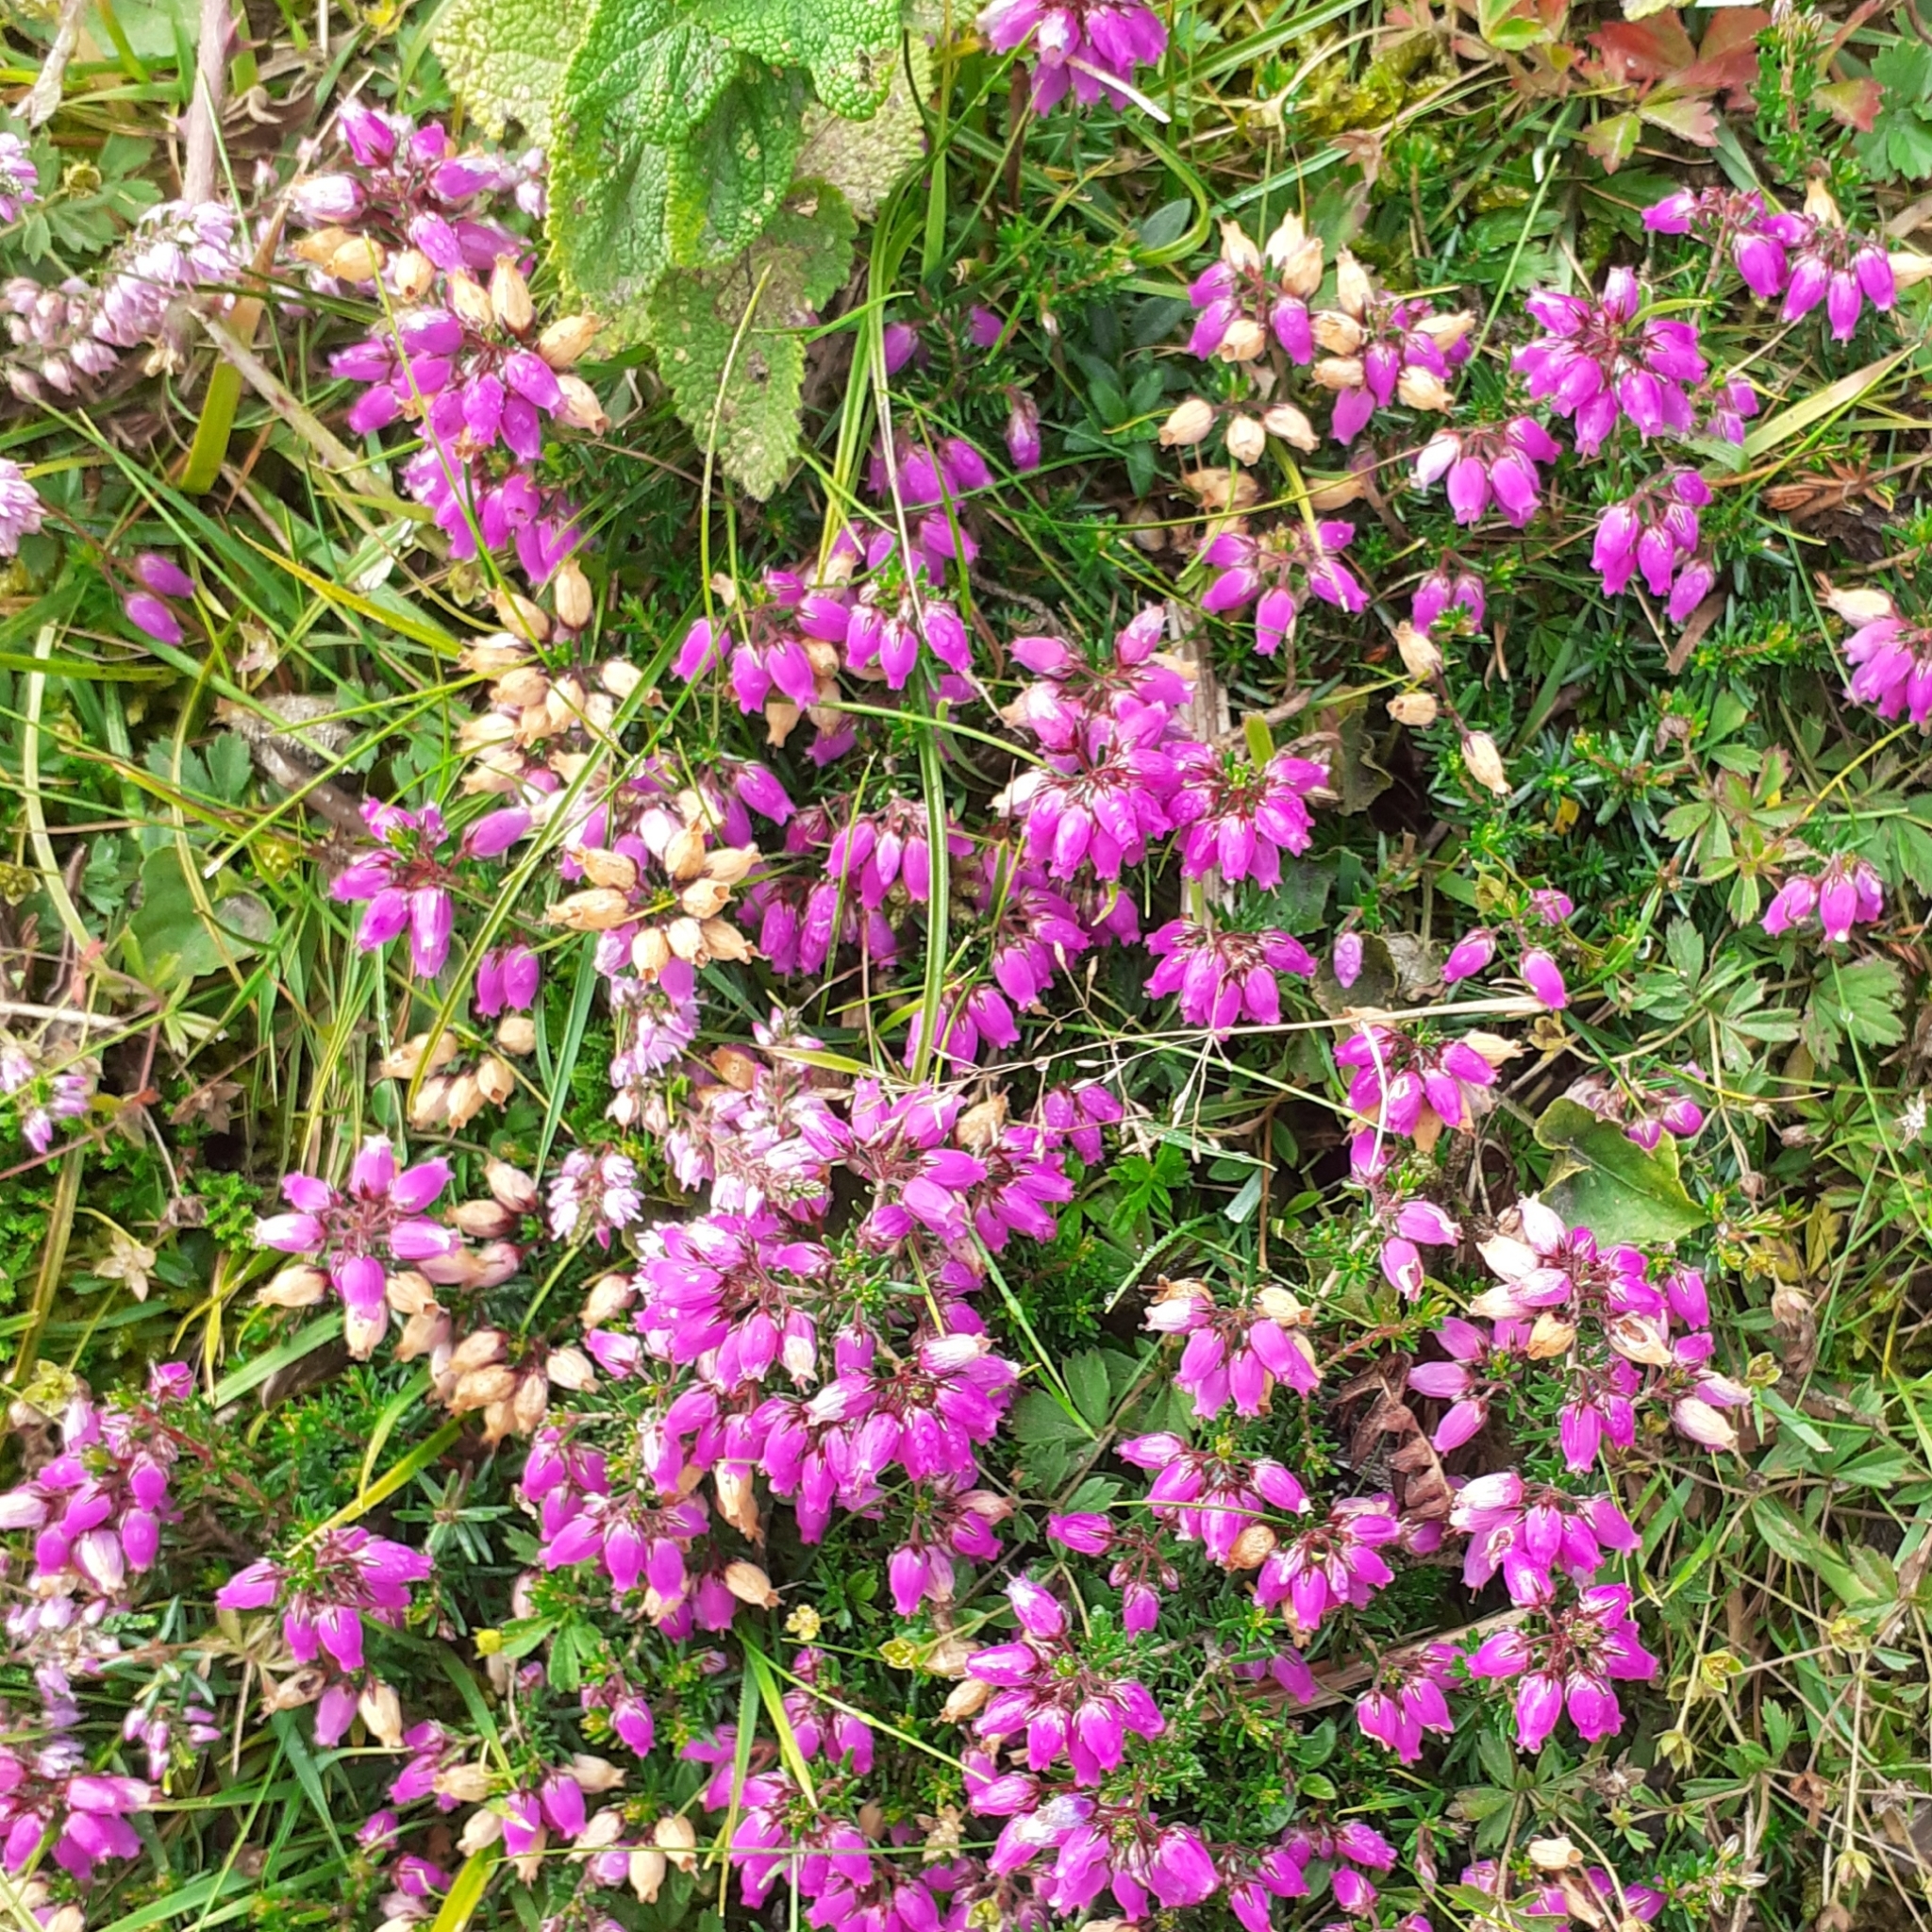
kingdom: Plantae
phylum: Tracheophyta
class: Magnoliopsida
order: Ericales
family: Ericaceae
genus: Erica
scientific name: Erica cinerea
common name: Bell heather
